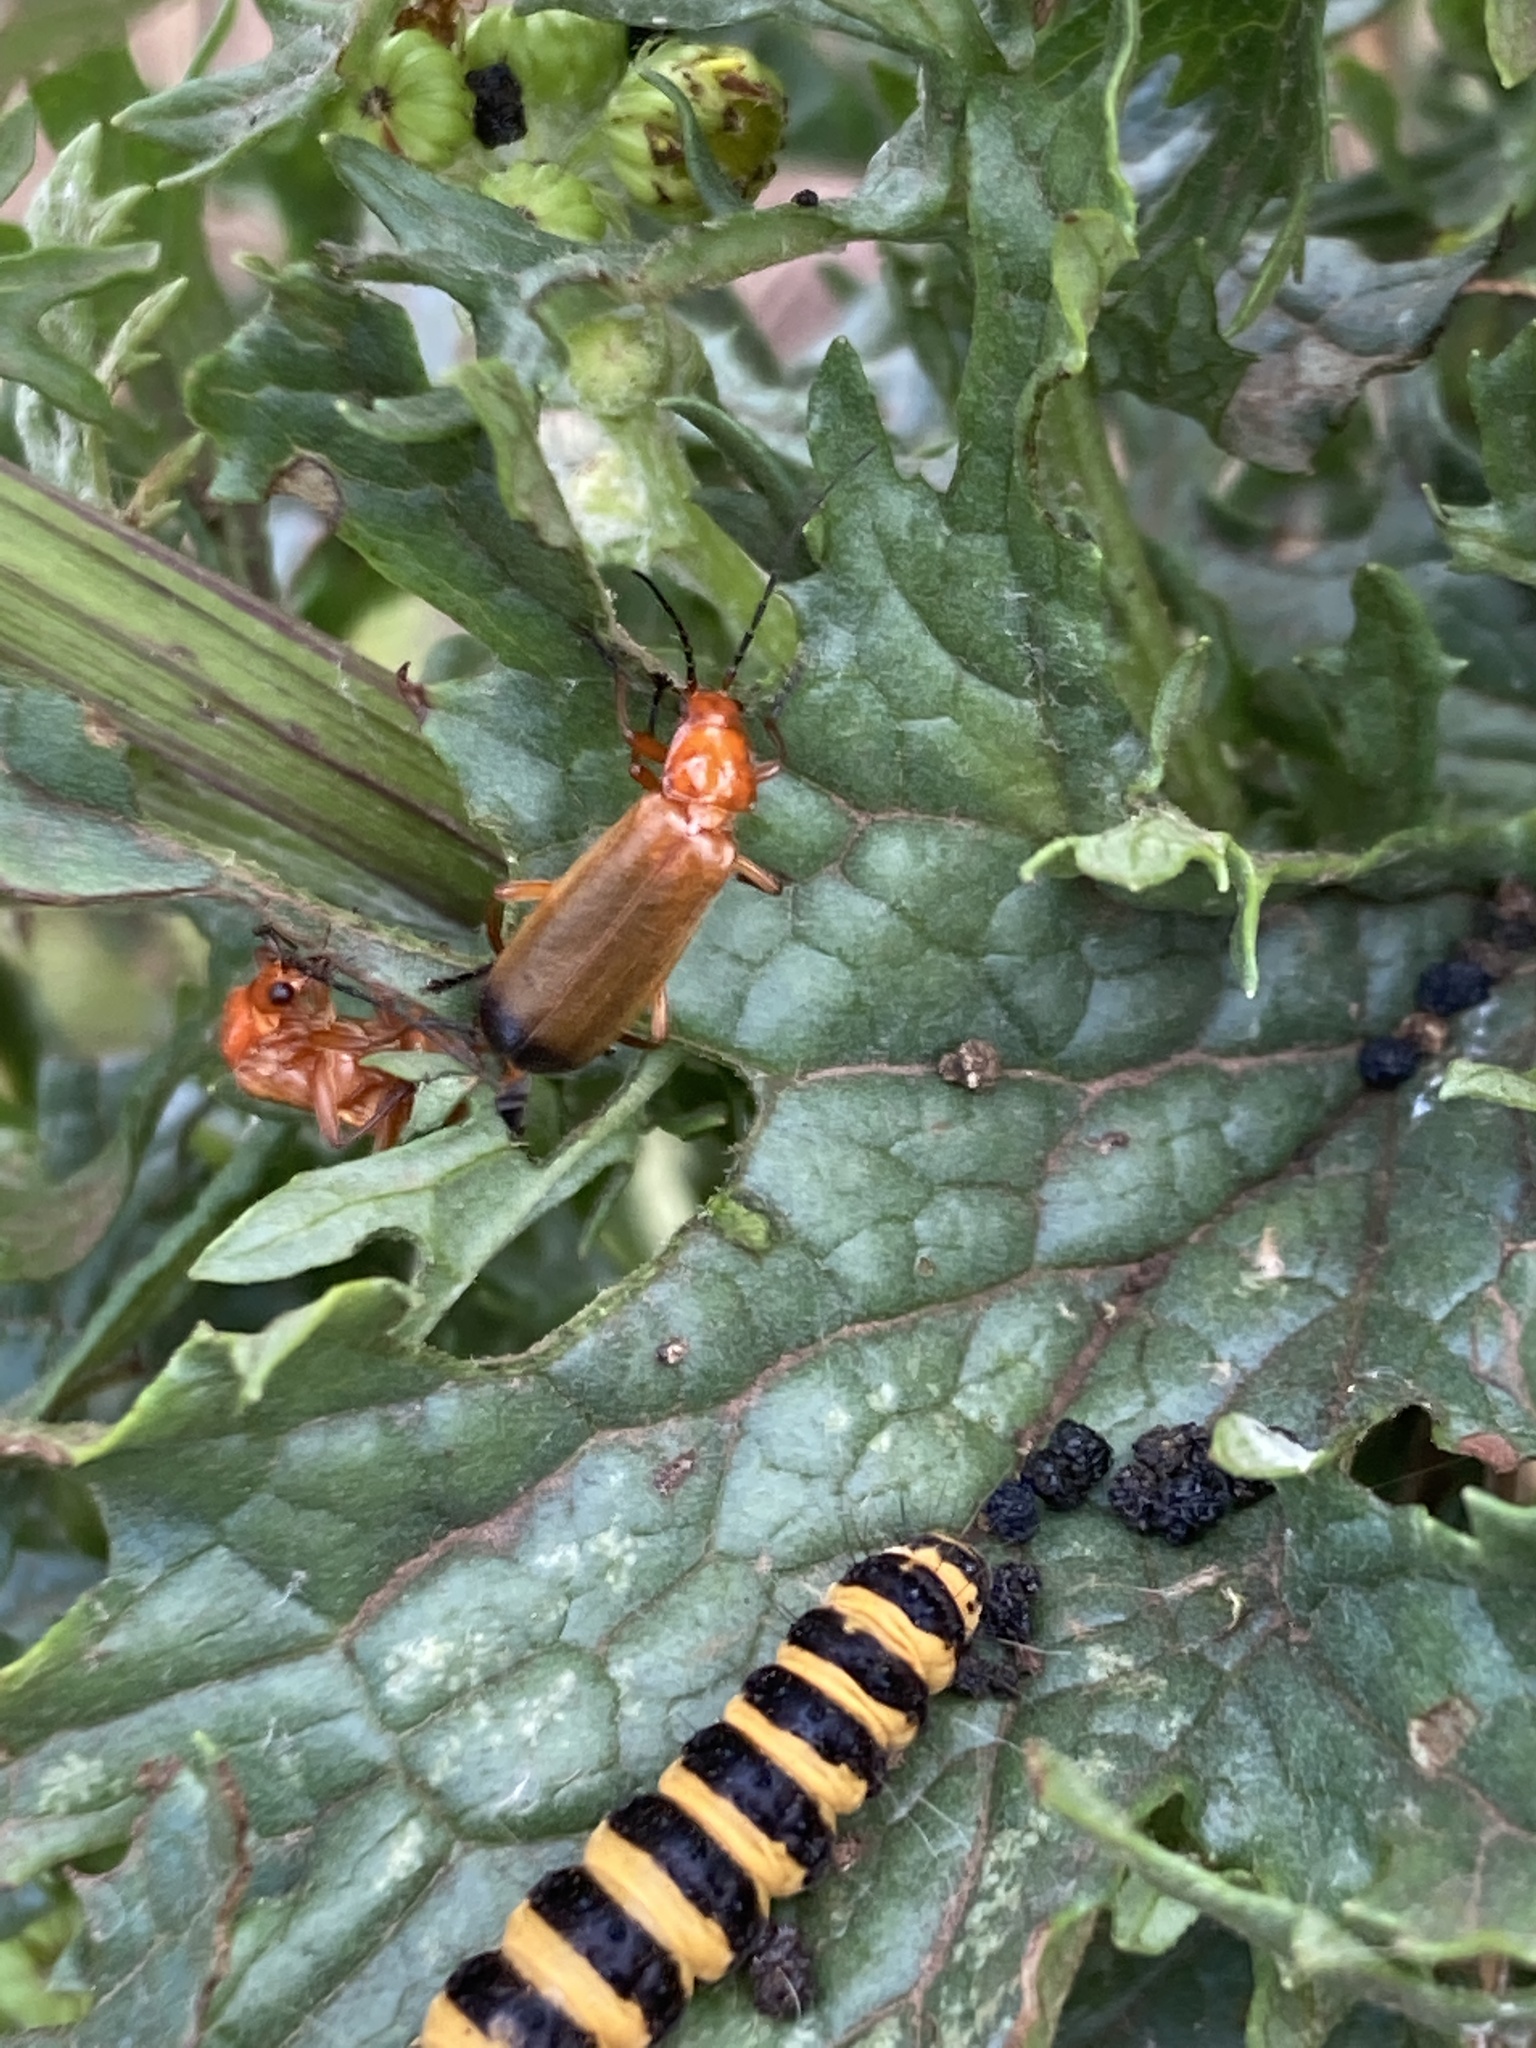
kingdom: Animalia
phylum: Arthropoda
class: Insecta
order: Coleoptera
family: Cantharidae
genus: Rhagonycha
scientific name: Rhagonycha fulva
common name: Common red soldier beetle
